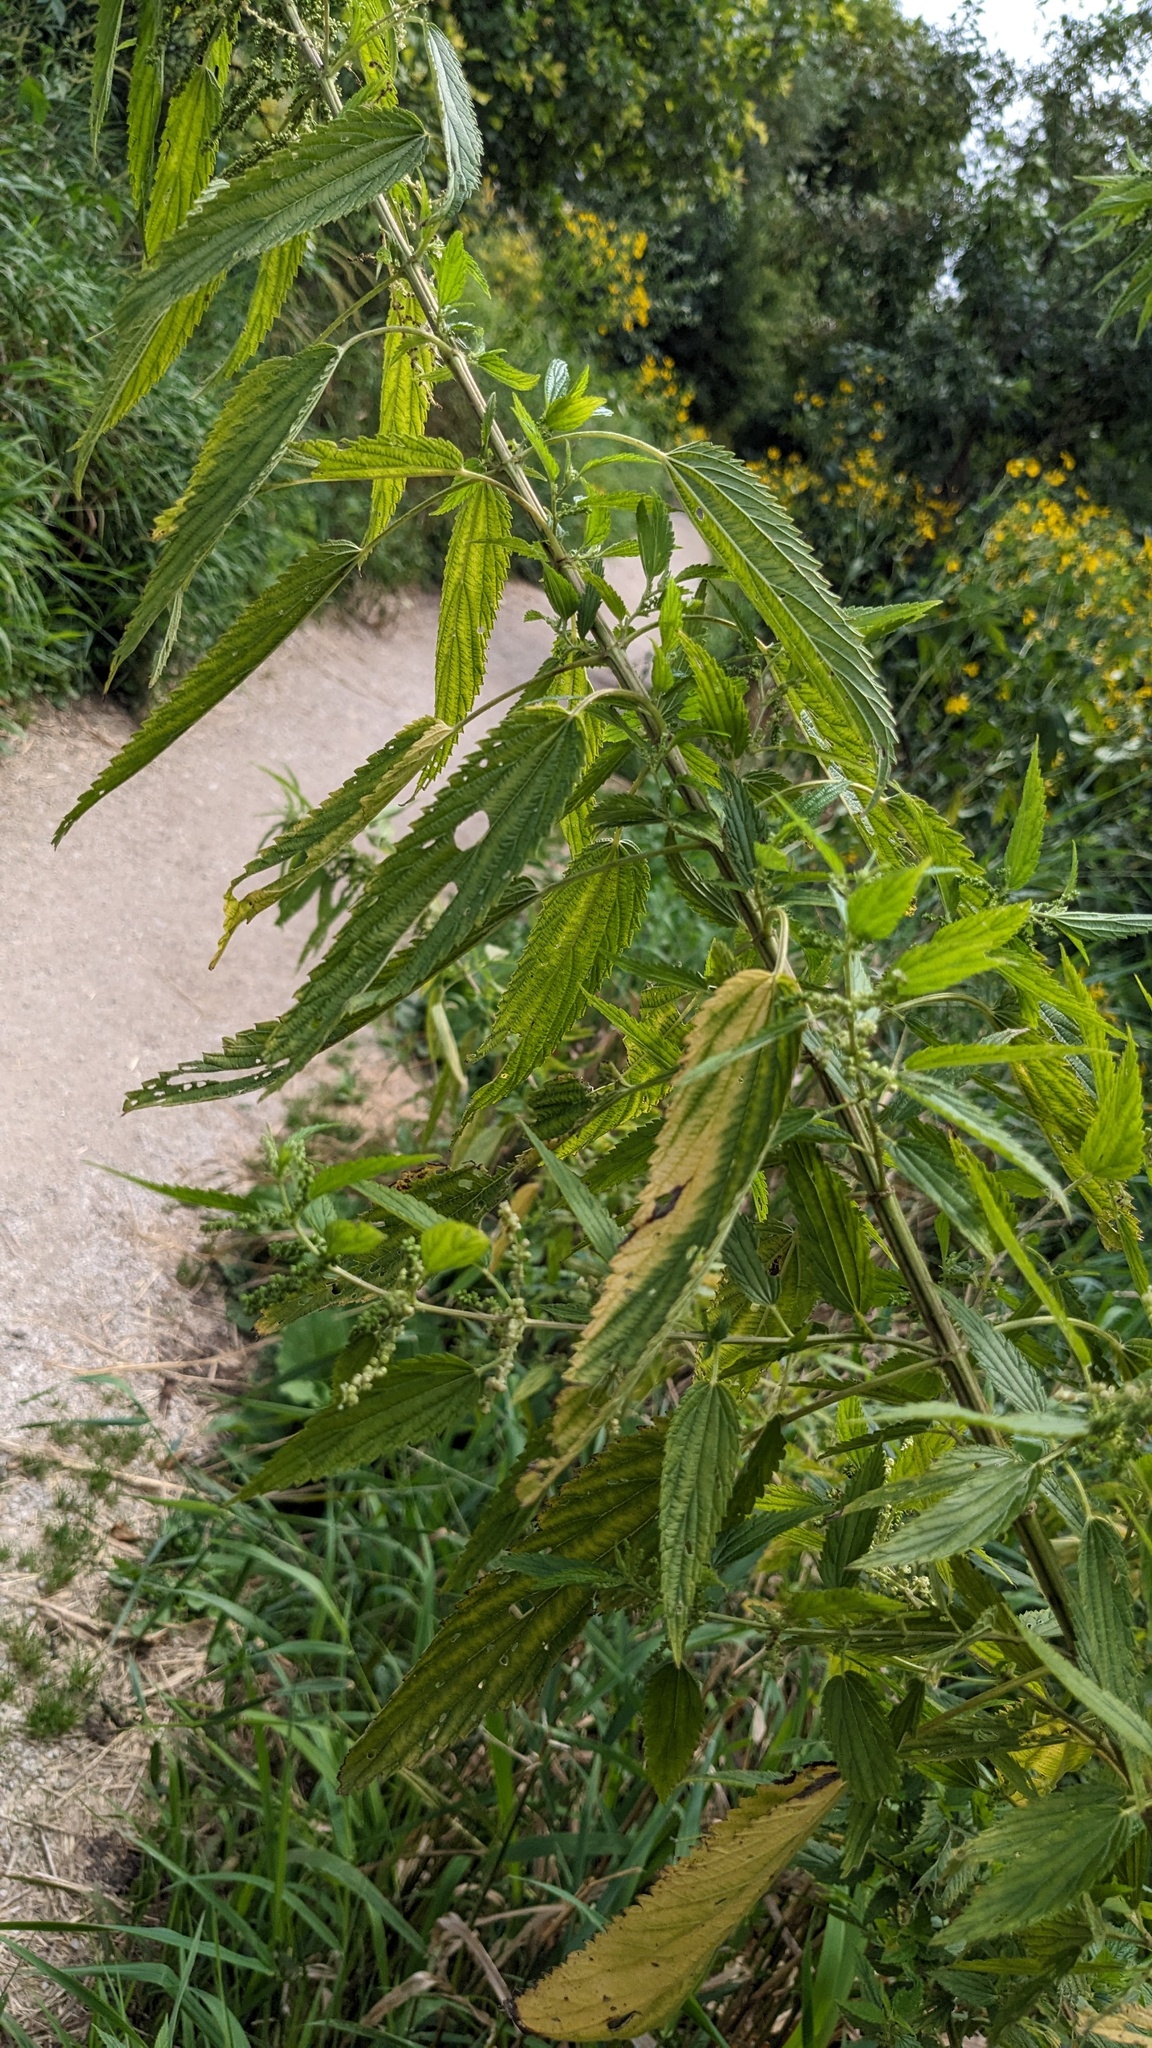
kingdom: Plantae
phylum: Tracheophyta
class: Magnoliopsida
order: Rosales
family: Urticaceae
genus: Urtica
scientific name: Urtica gracilis
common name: Slender stinging nettle
